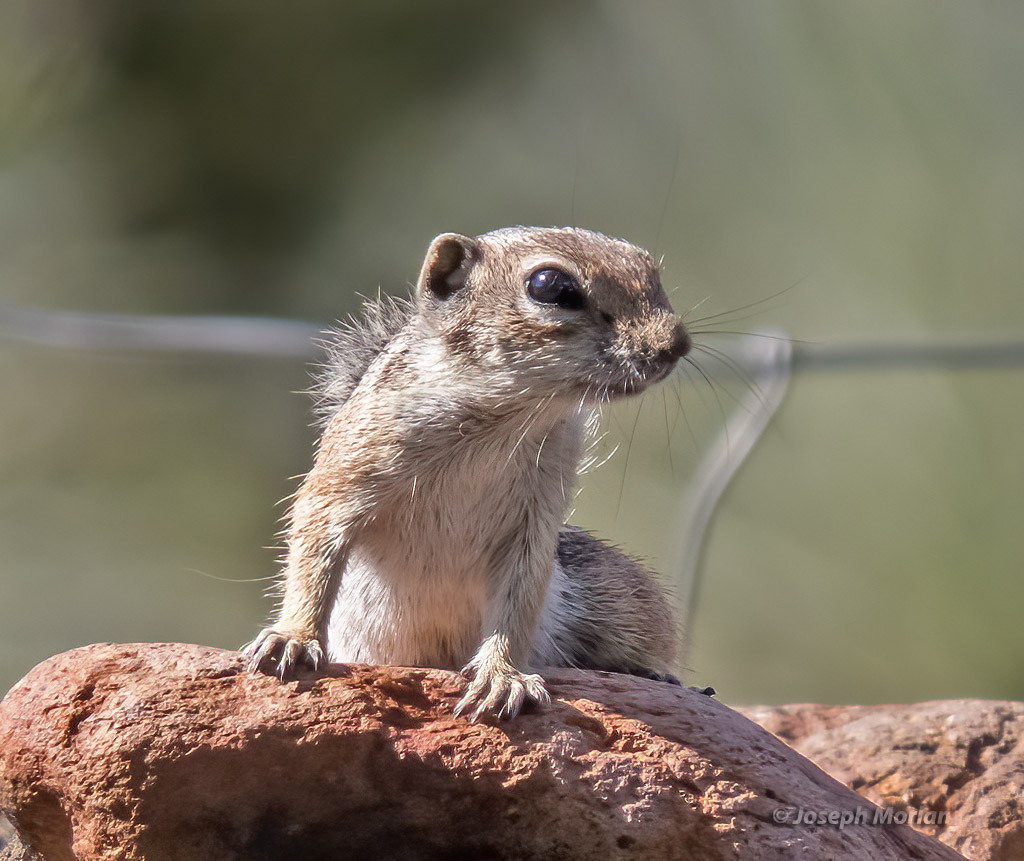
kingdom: Animalia
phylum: Chordata
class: Mammalia
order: Rodentia
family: Sciuridae
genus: Ammospermophilus
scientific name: Ammospermophilus harrisii
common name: Harris's antelope squirrel
